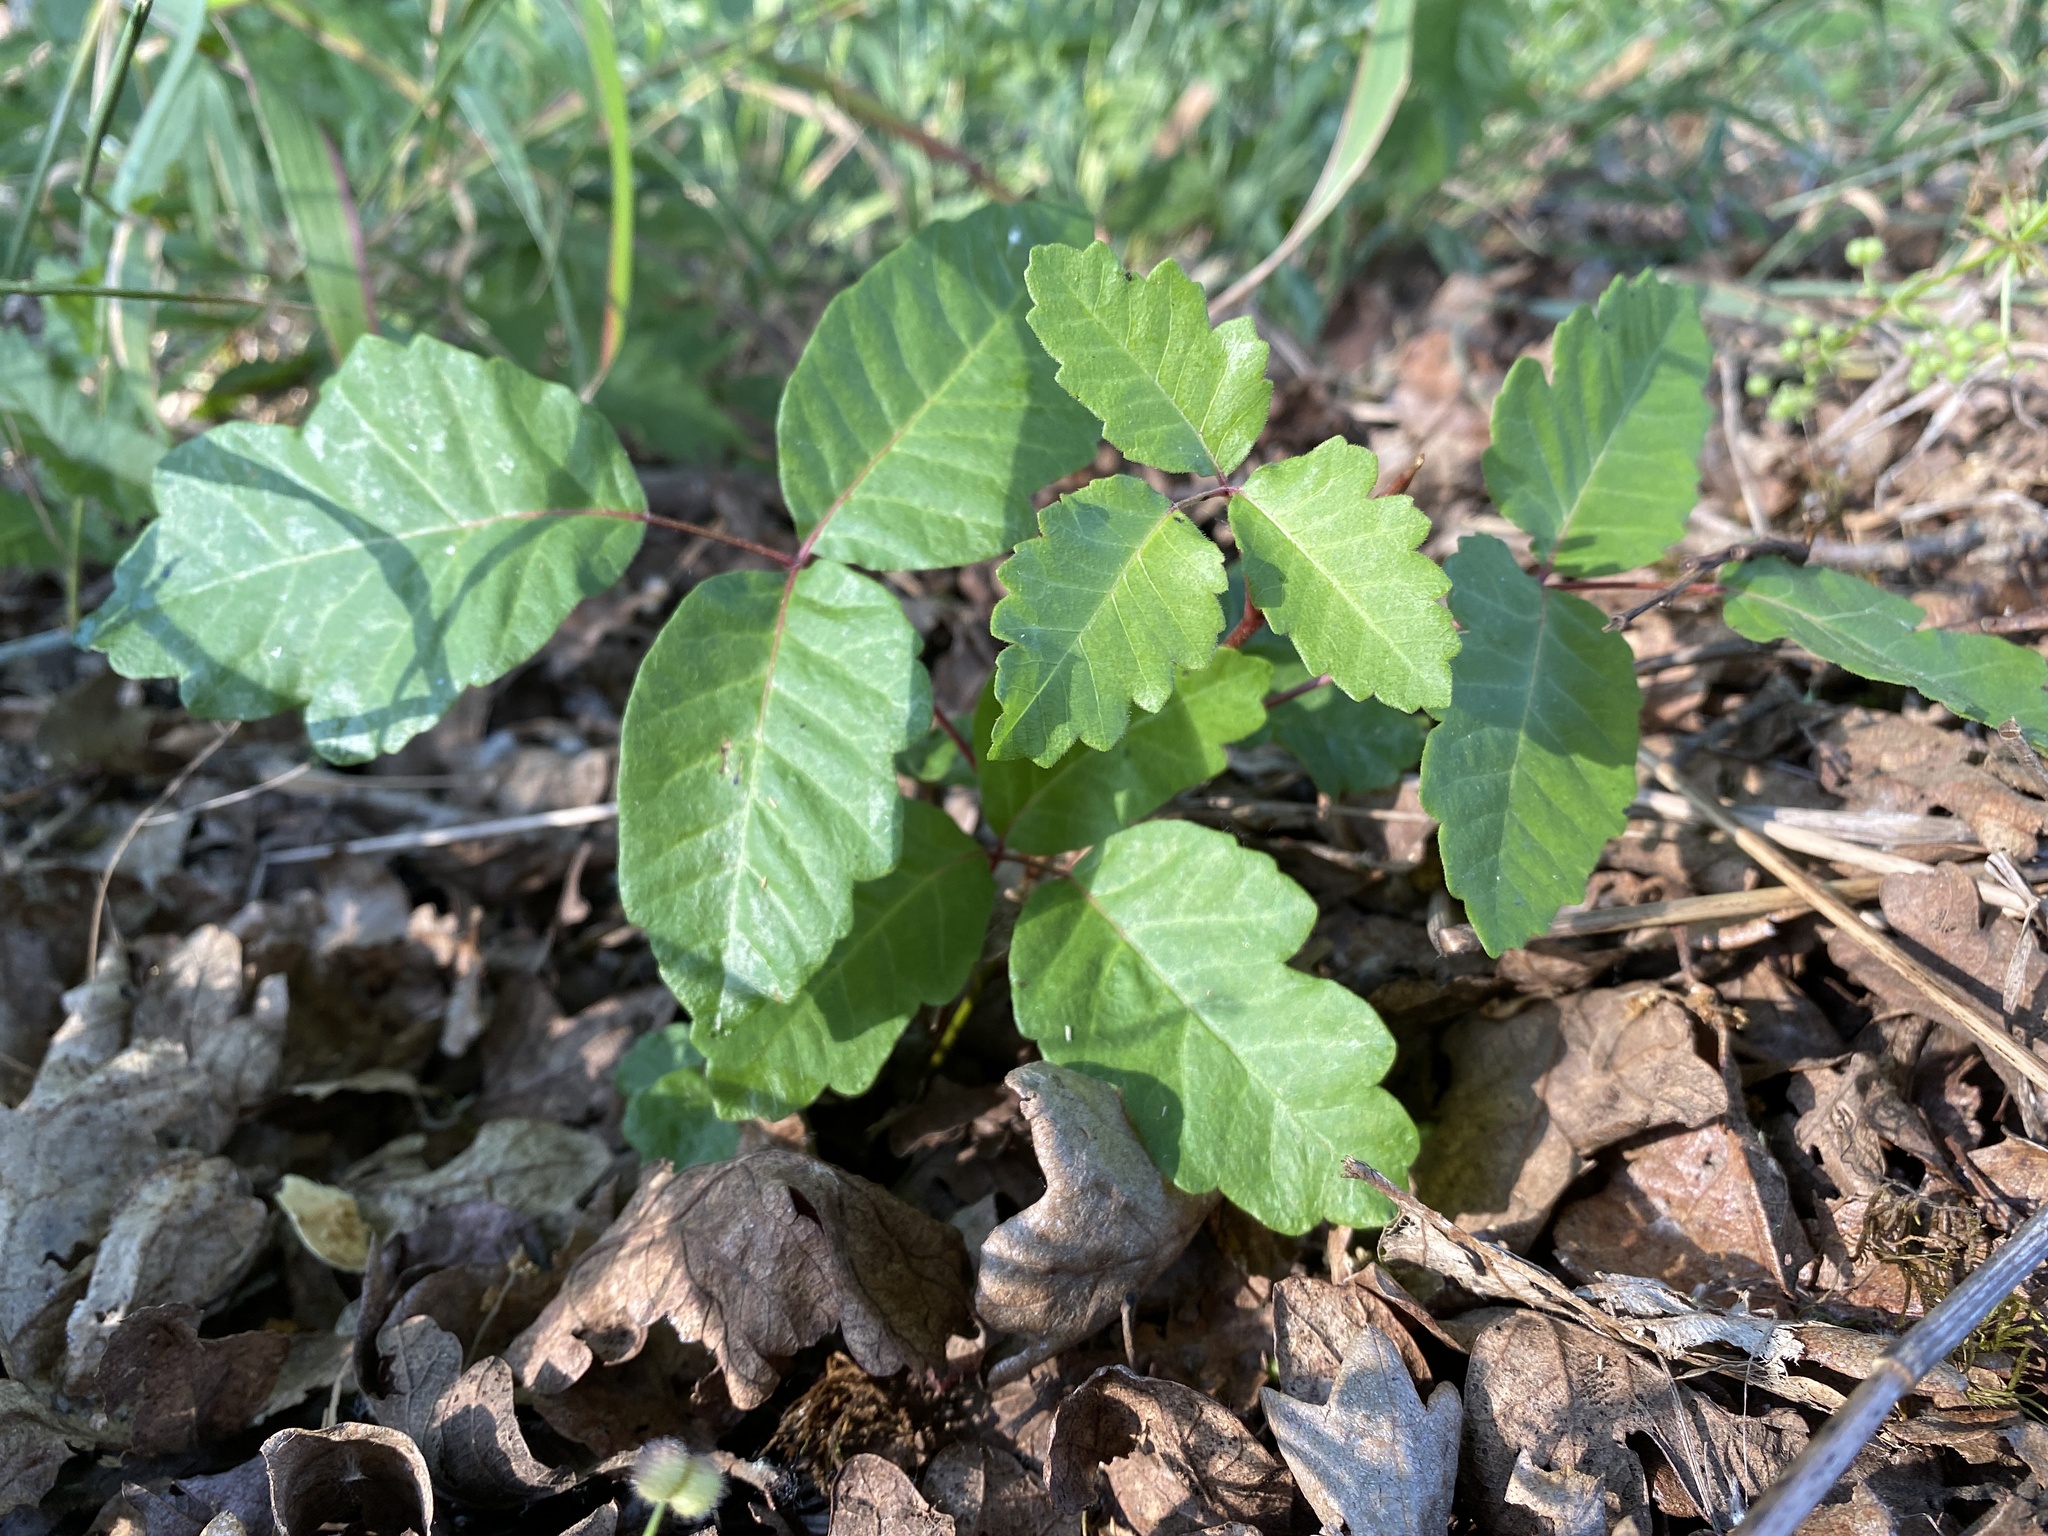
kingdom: Plantae
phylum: Tracheophyta
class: Magnoliopsida
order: Sapindales
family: Anacardiaceae
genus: Toxicodendron
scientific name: Toxicodendron diversilobum
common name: Pacific poison-oak
